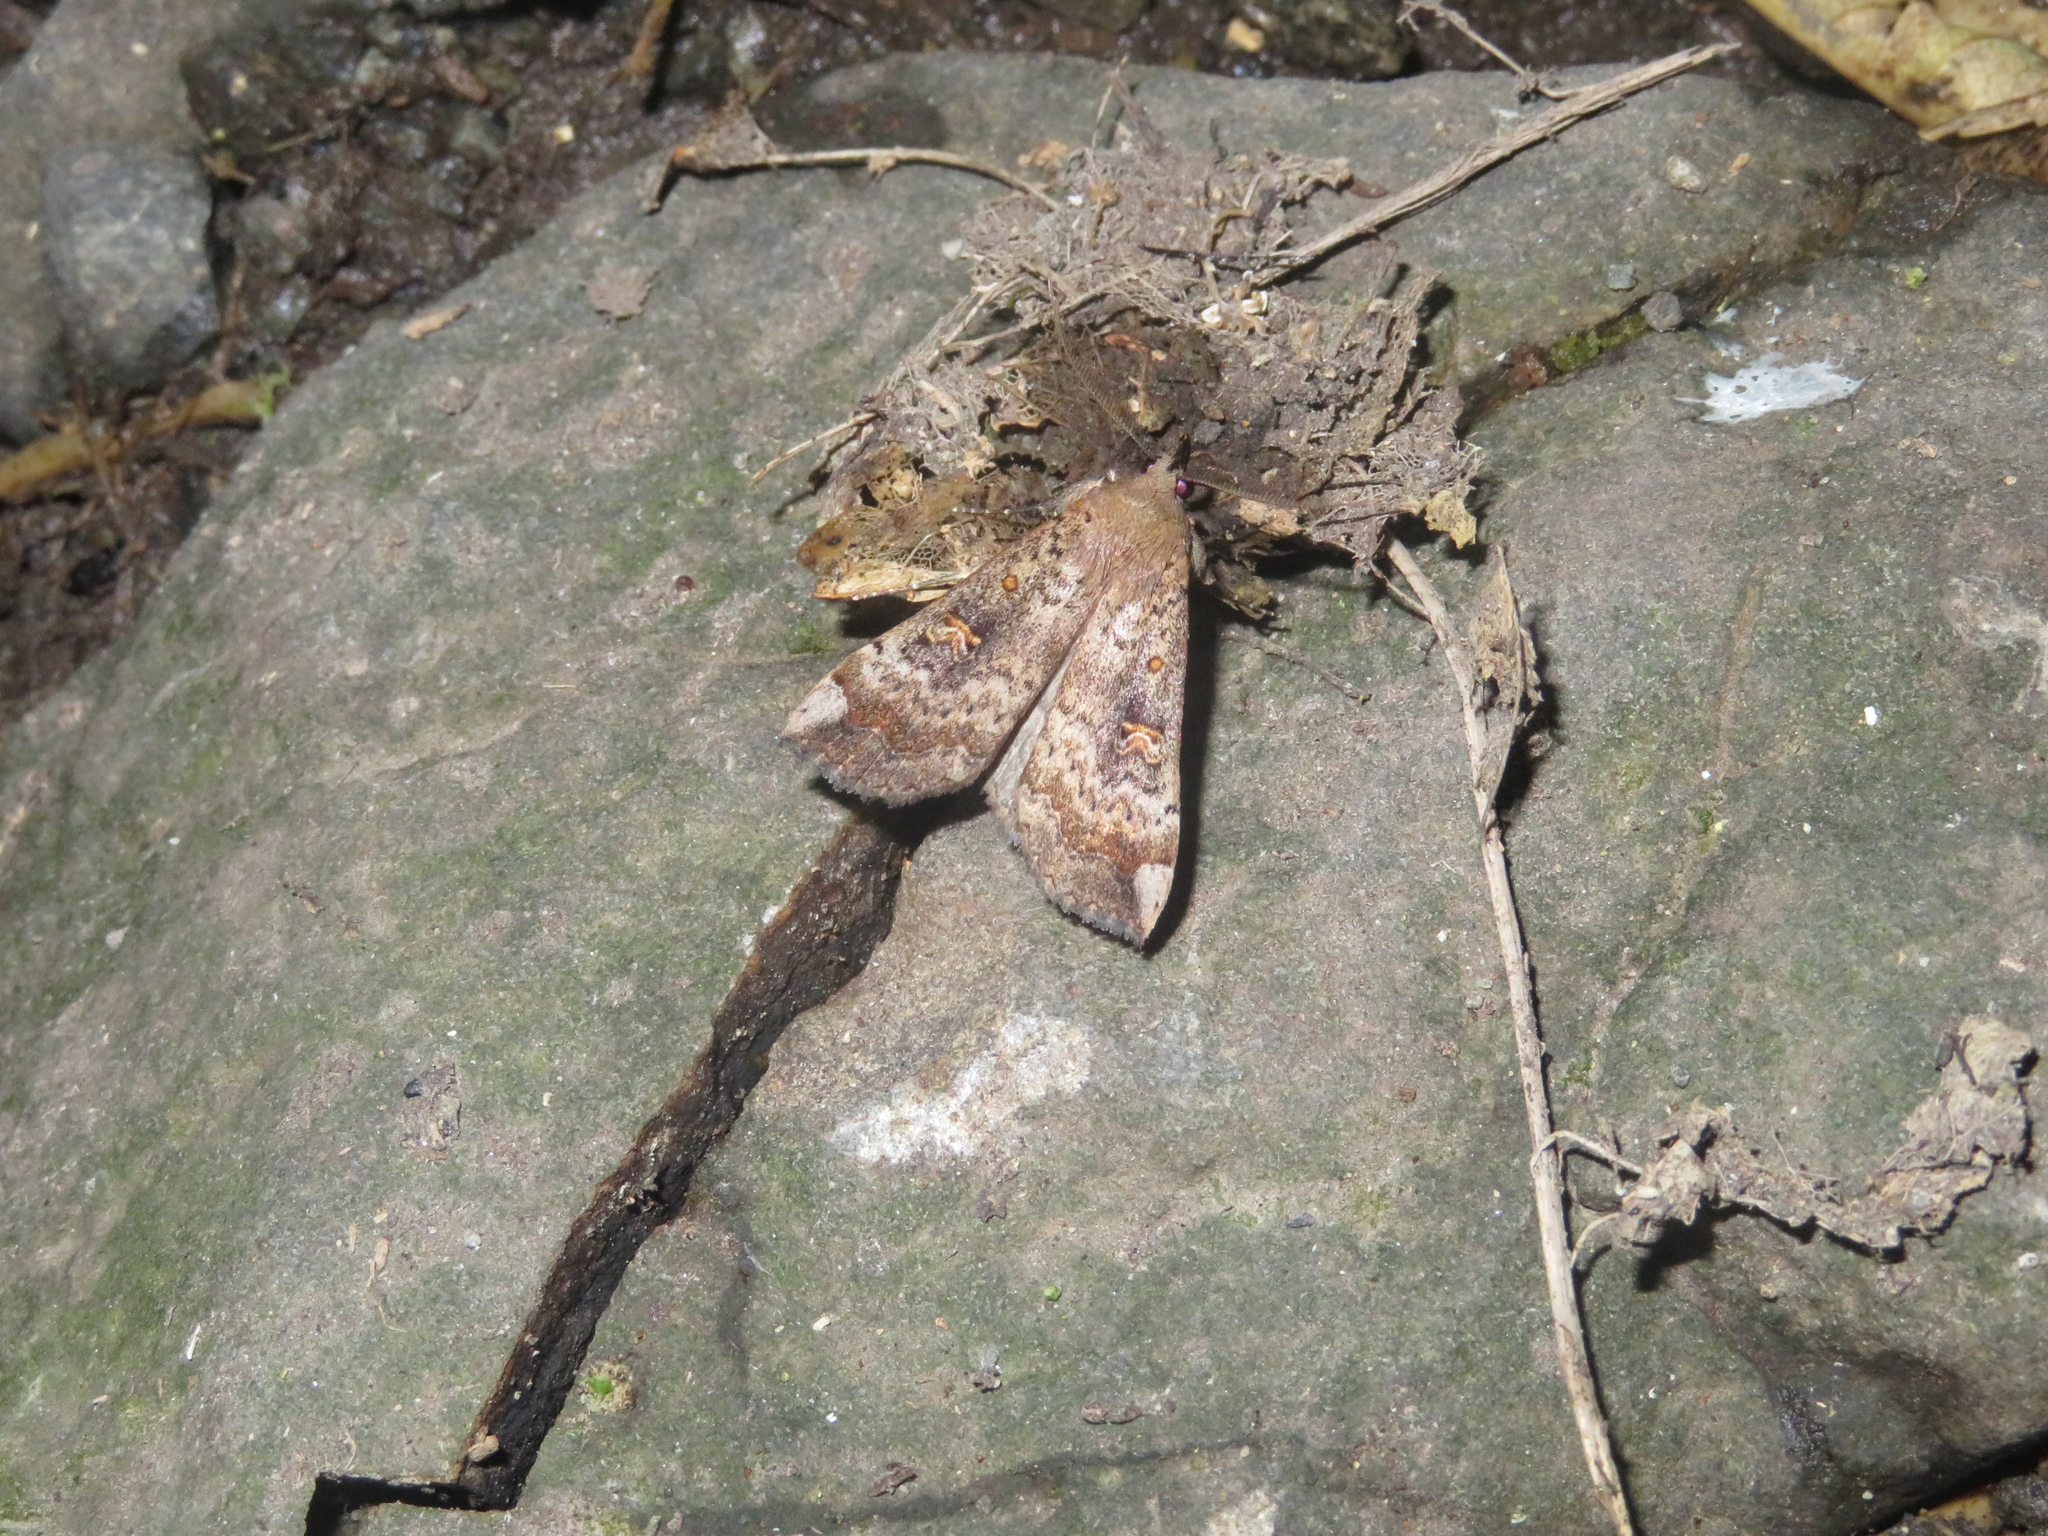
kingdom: Animalia
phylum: Arthropoda
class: Insecta
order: Lepidoptera
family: Erebidae
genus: Rhapsa
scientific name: Rhapsa scotosialis
